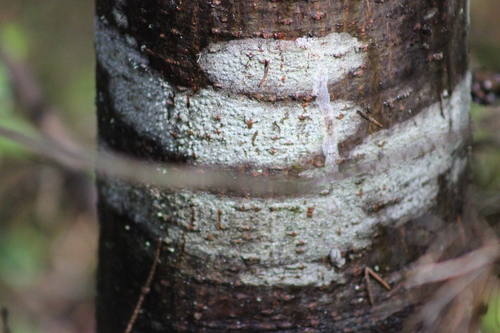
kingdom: Fungi
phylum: Ascomycota
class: Lecanoromycetes
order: Lecanorales
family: Lecanoraceae
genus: Lecanora
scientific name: Lecanora
